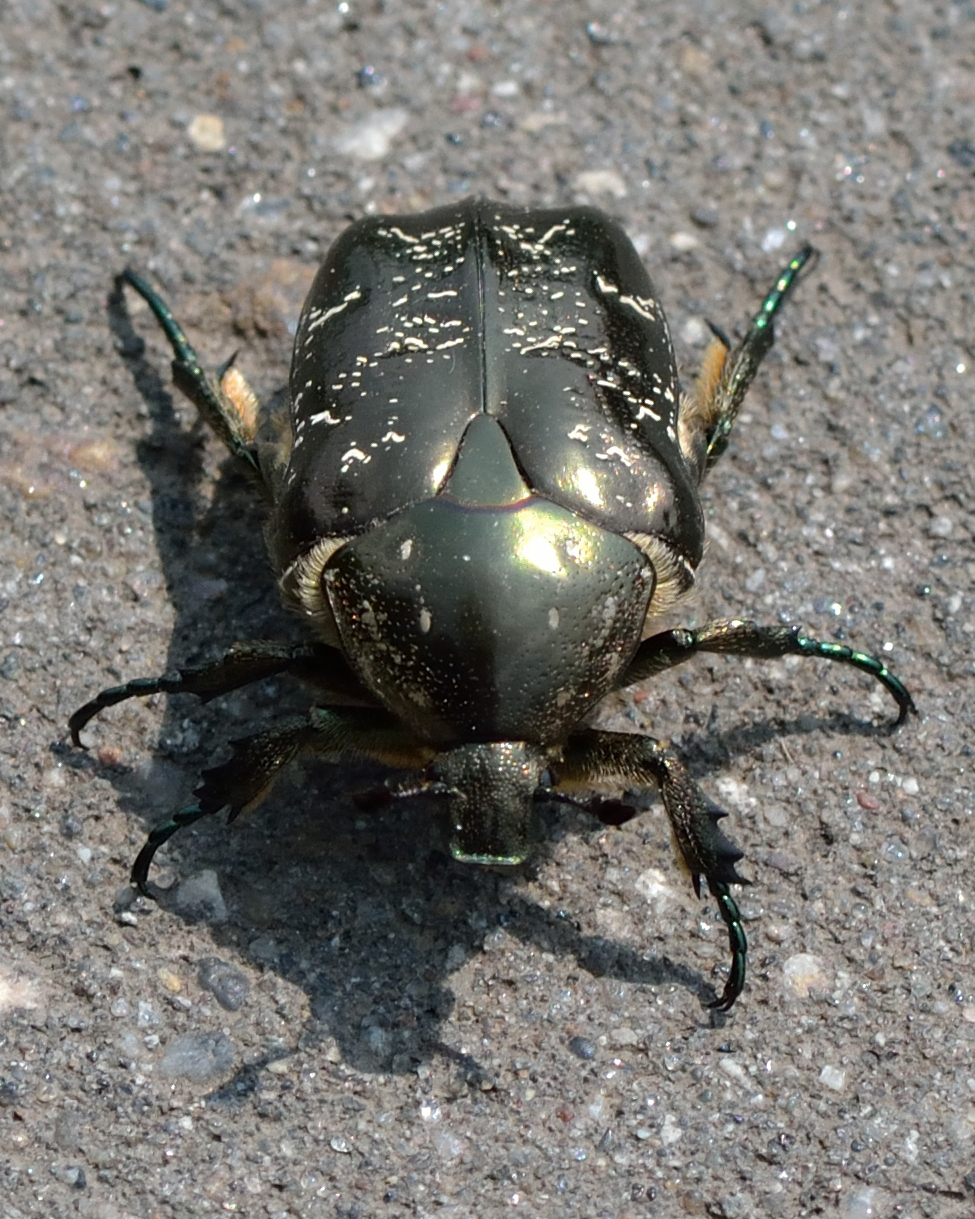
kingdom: Animalia
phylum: Arthropoda
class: Insecta
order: Coleoptera
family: Scarabaeidae
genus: Protaetia
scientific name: Protaetia marmorata
